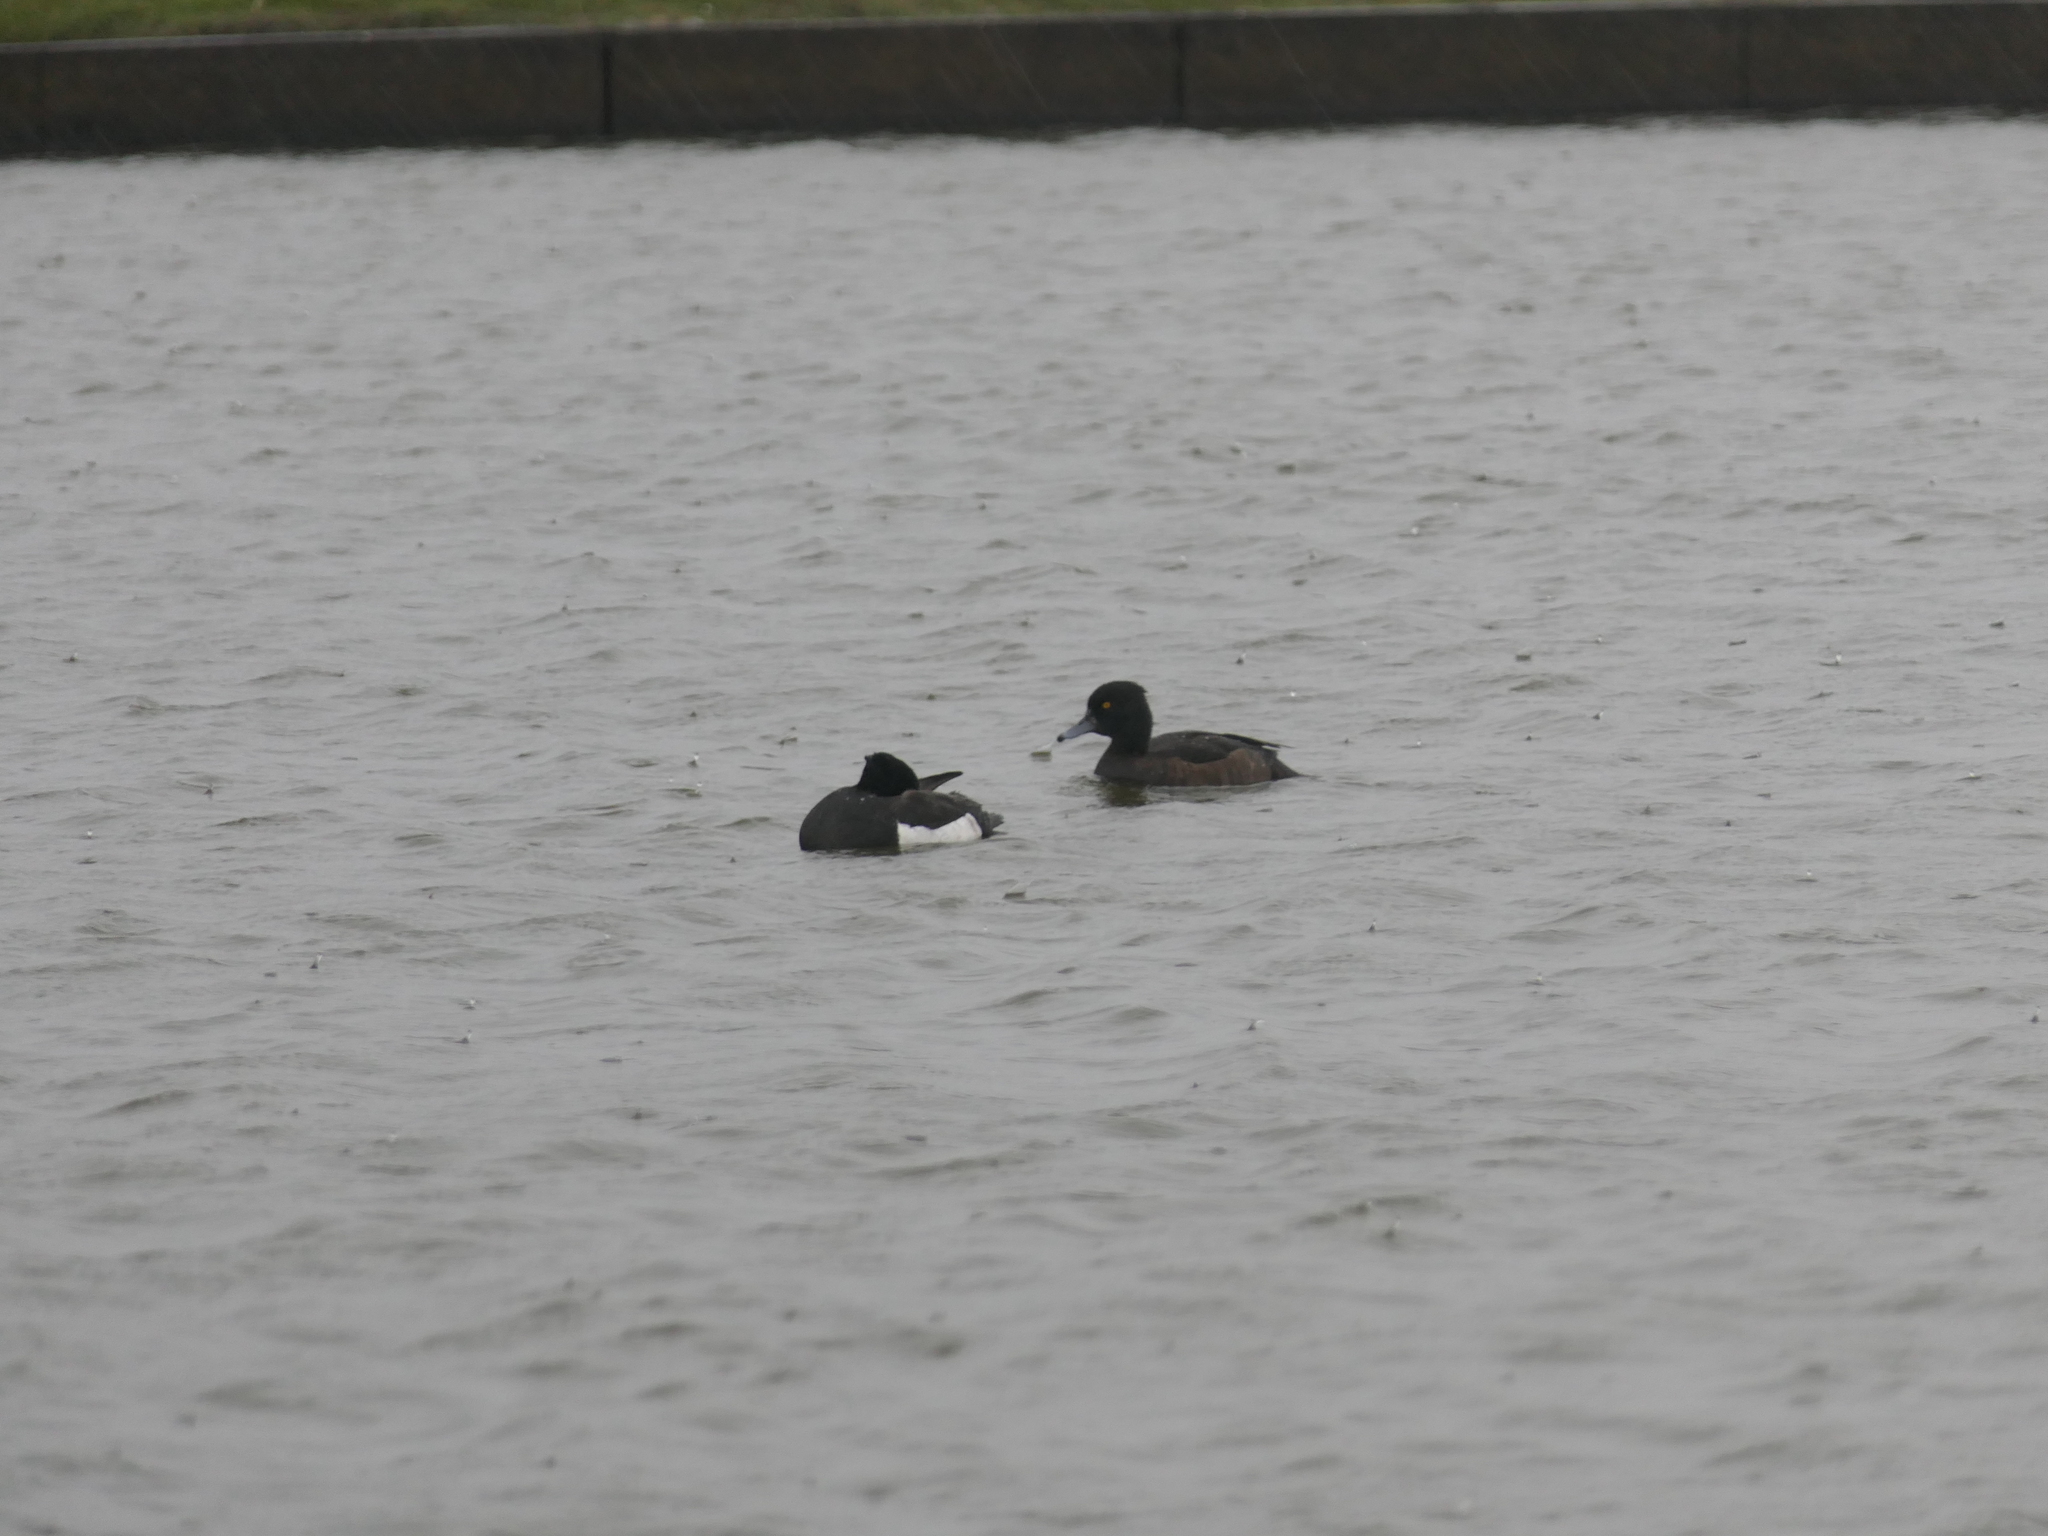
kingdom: Animalia
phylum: Chordata
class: Aves
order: Anseriformes
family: Anatidae
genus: Aythya
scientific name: Aythya fuligula
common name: Tufted duck
